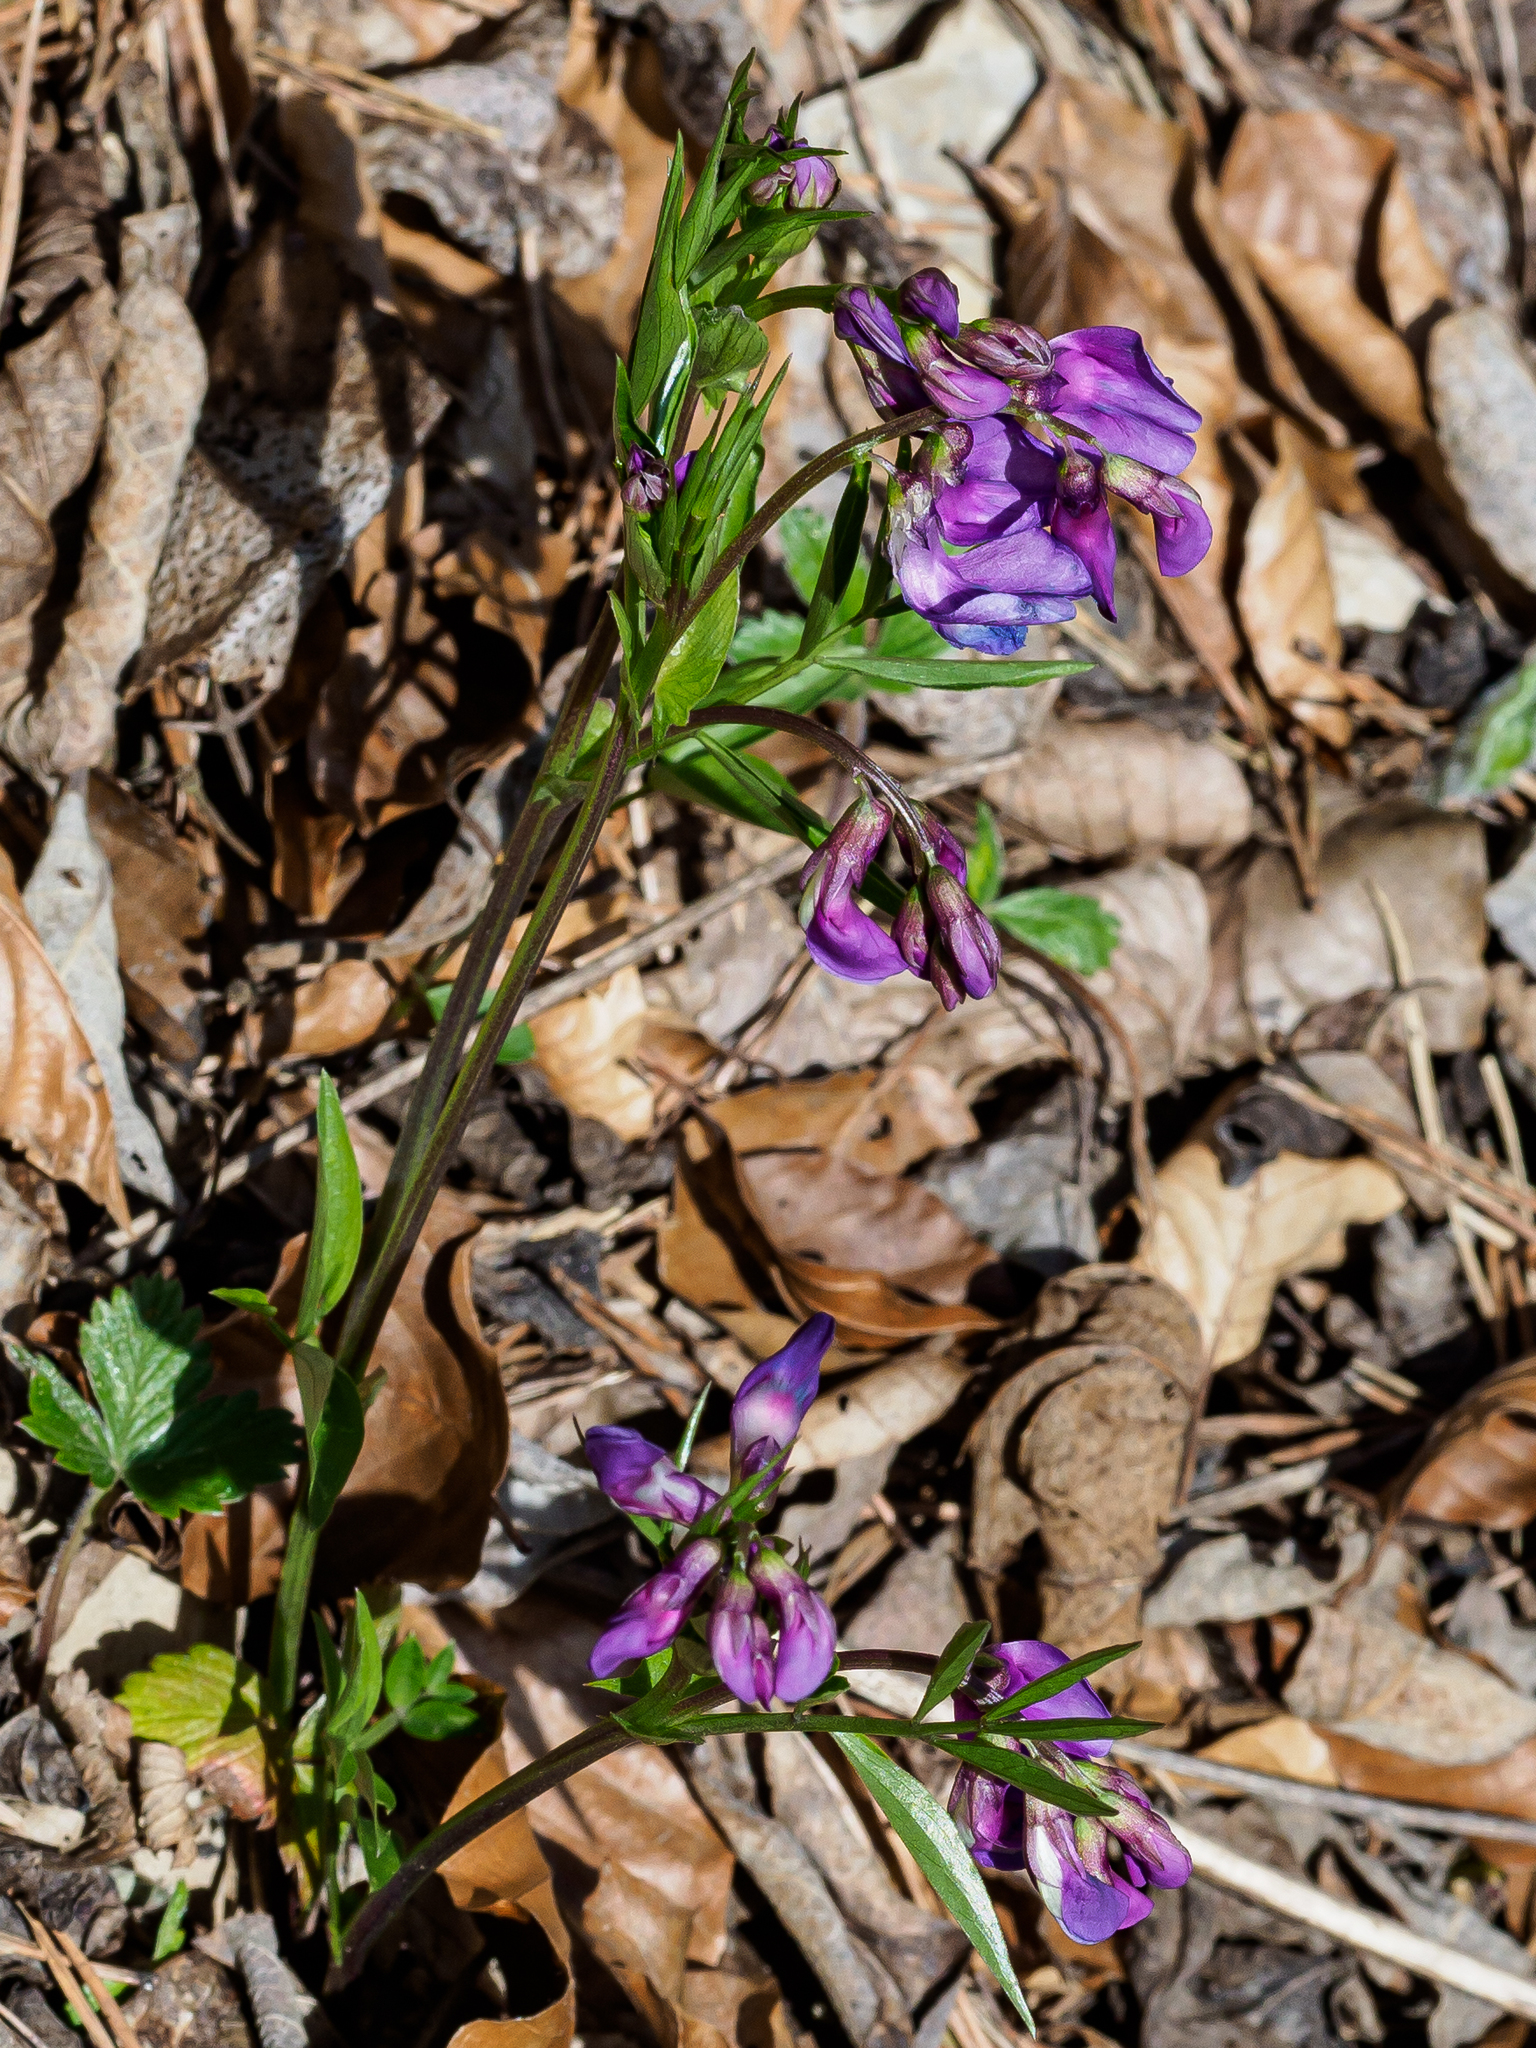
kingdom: Plantae
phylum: Tracheophyta
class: Magnoliopsida
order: Fabales
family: Fabaceae
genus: Lathyrus
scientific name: Lathyrus vernus
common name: Spring pea
